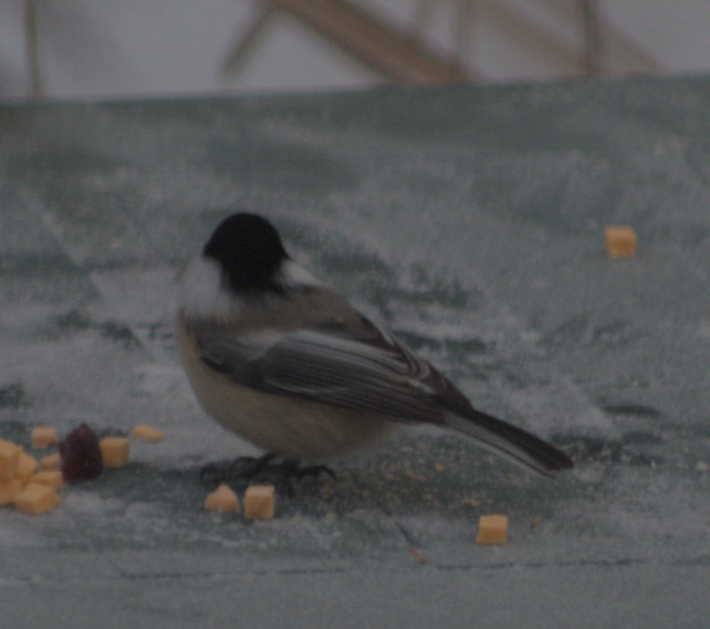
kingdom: Animalia
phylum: Chordata
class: Aves
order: Passeriformes
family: Paridae
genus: Poecile
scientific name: Poecile atricapillus
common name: Black-capped chickadee
